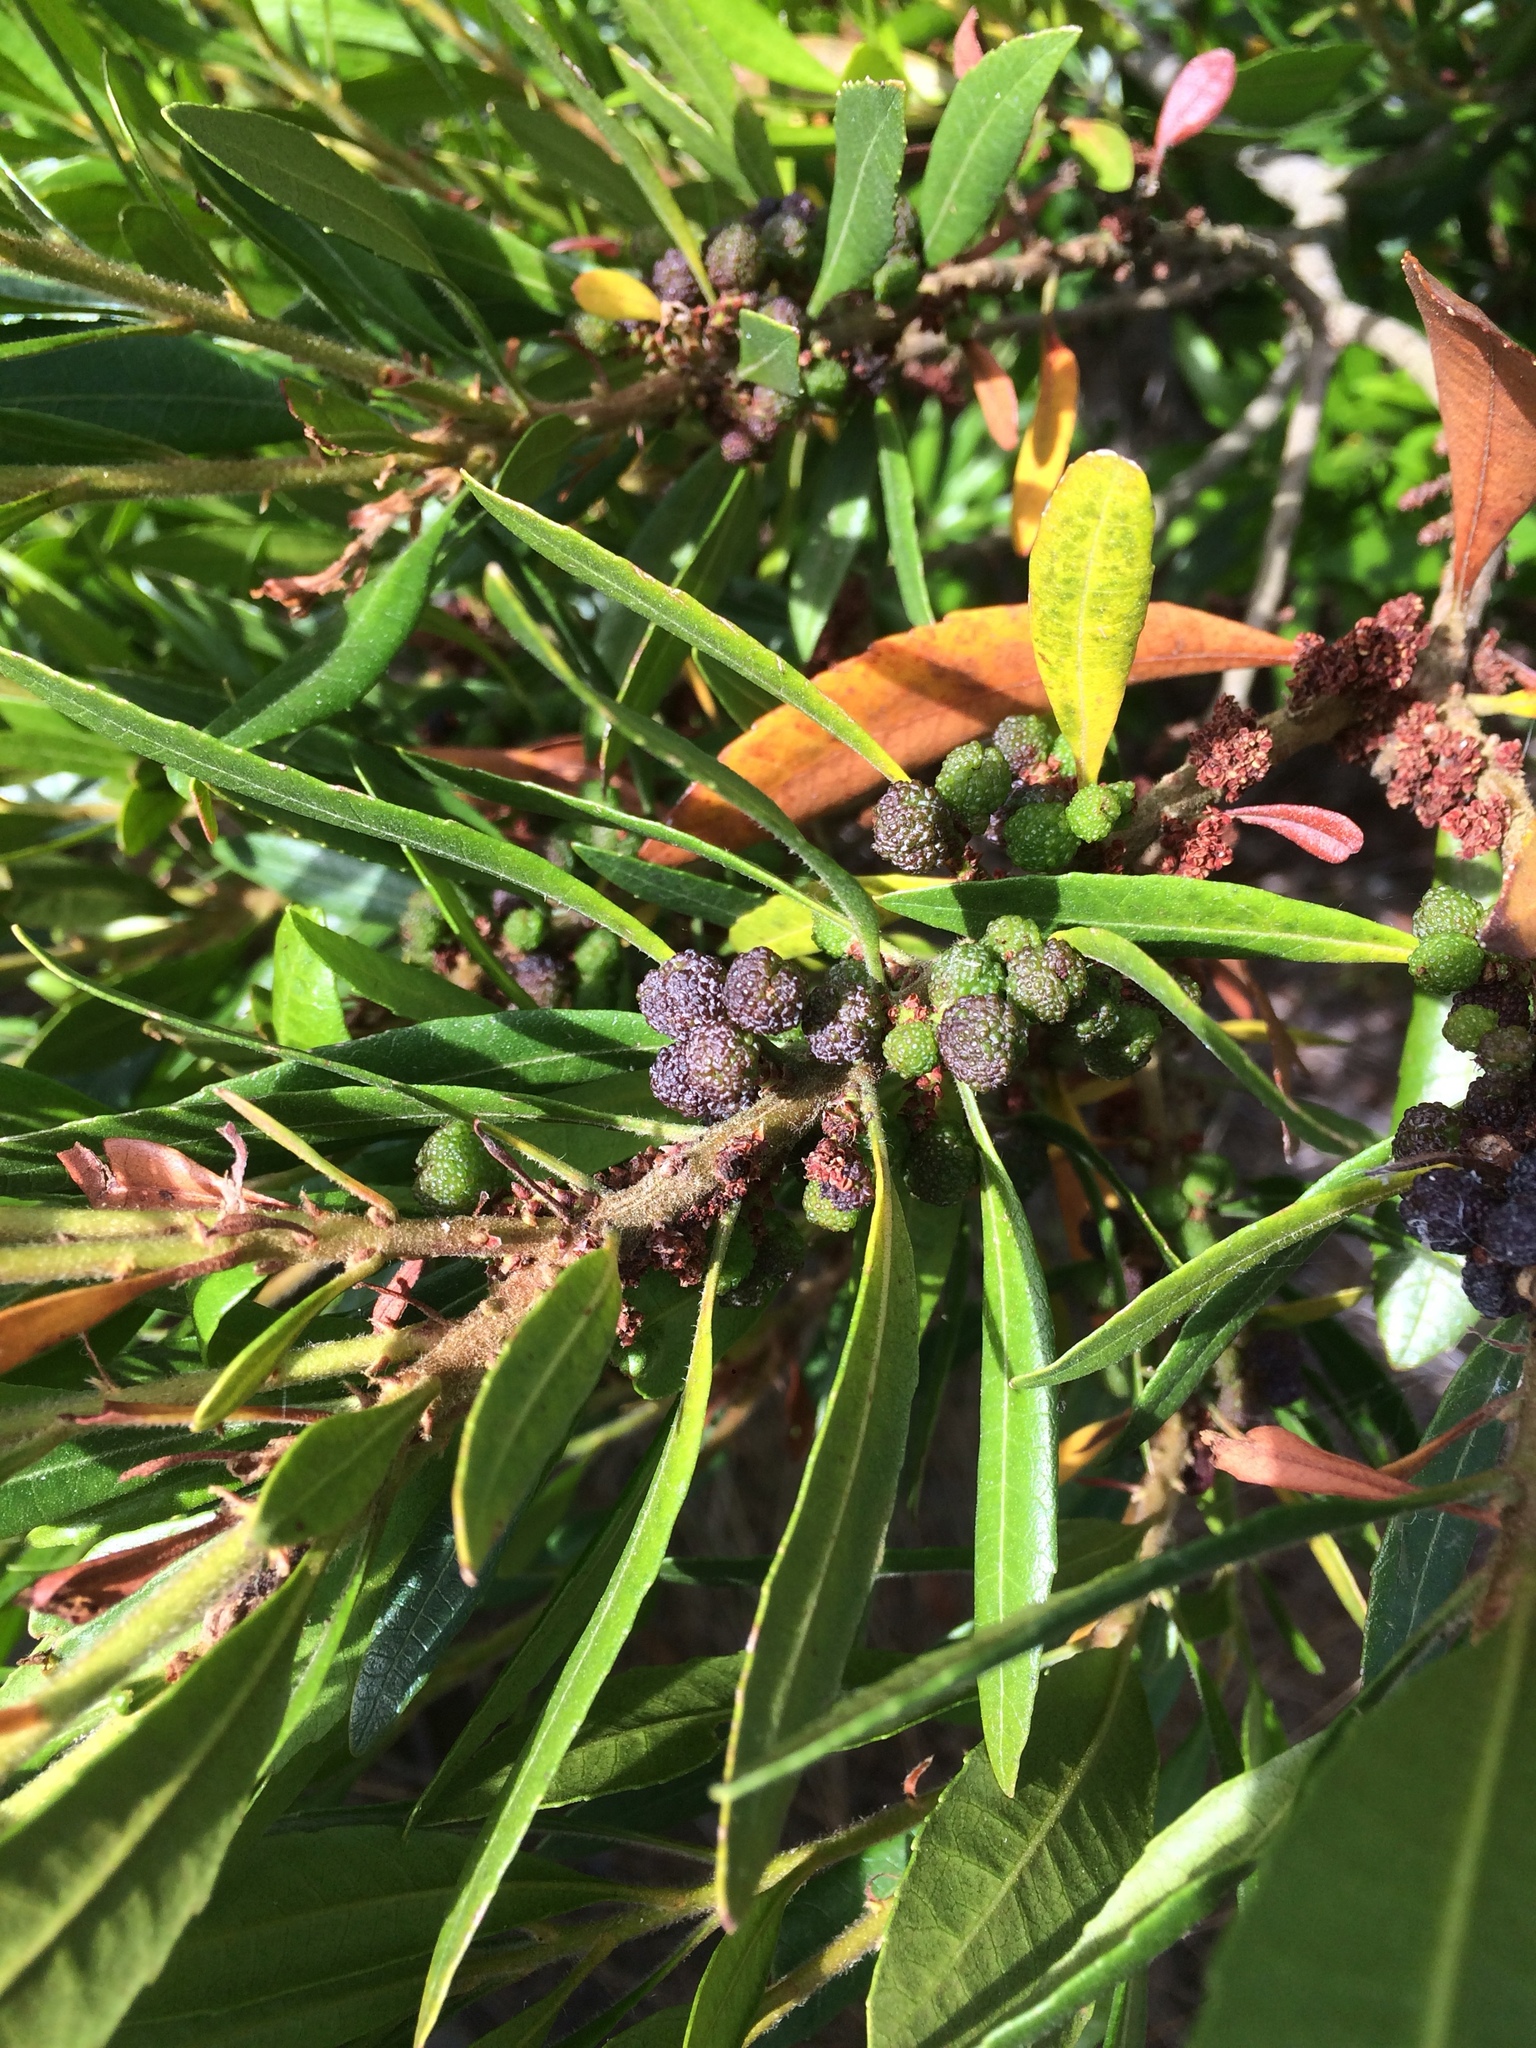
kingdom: Plantae
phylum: Tracheophyta
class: Magnoliopsida
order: Fagales
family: Myricaceae
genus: Morella
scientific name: Morella californica
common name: California wax-myrtle
